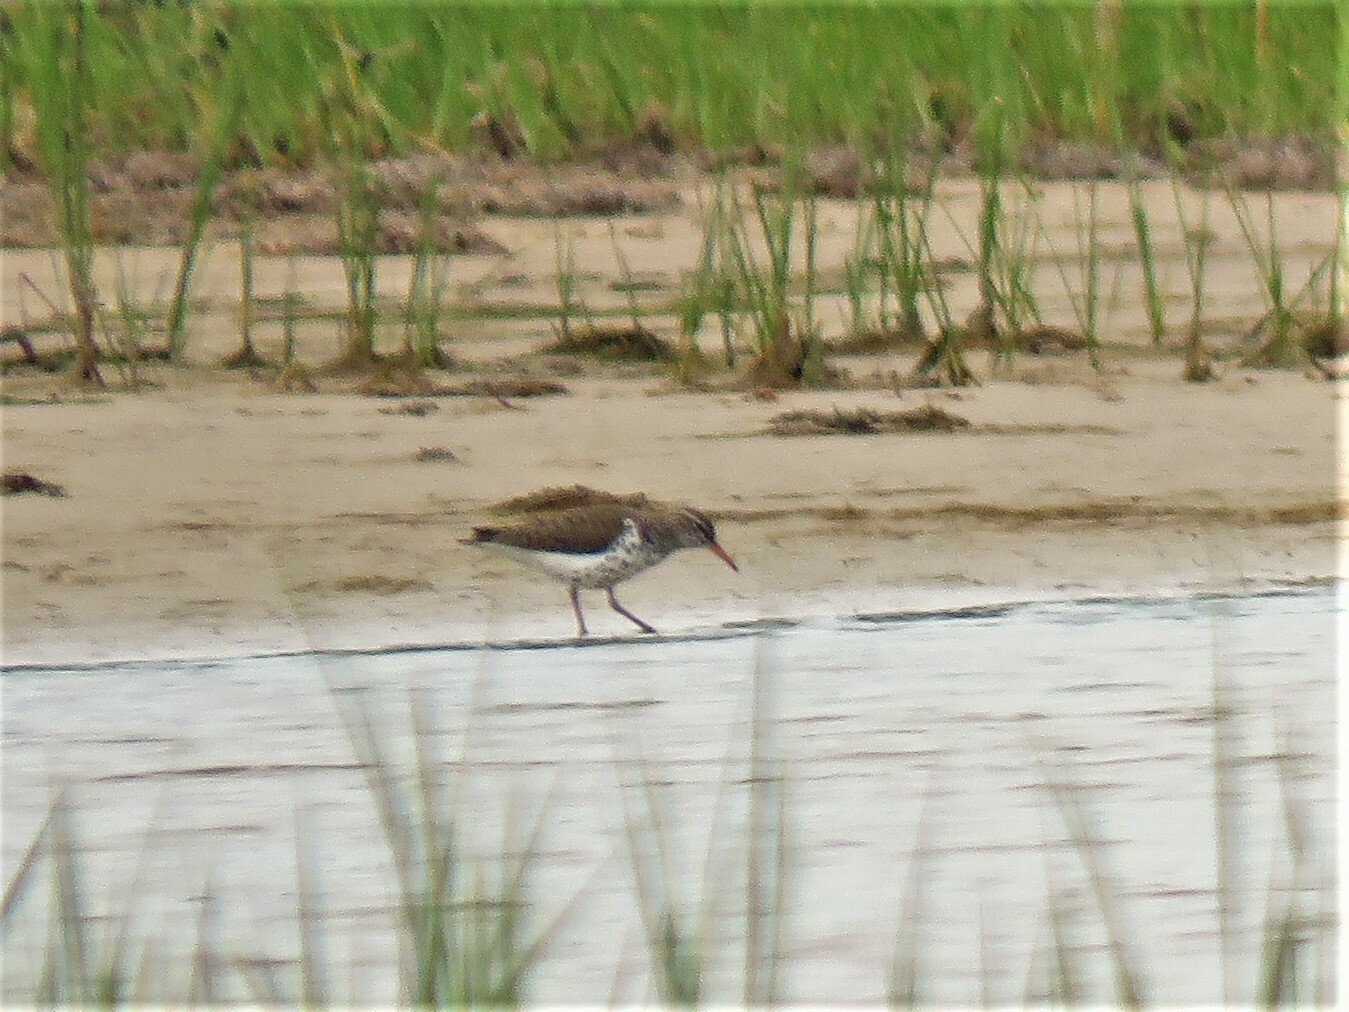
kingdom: Animalia
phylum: Chordata
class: Aves
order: Charadriiformes
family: Scolopacidae
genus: Actitis
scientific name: Actitis macularius
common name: Spotted sandpiper
